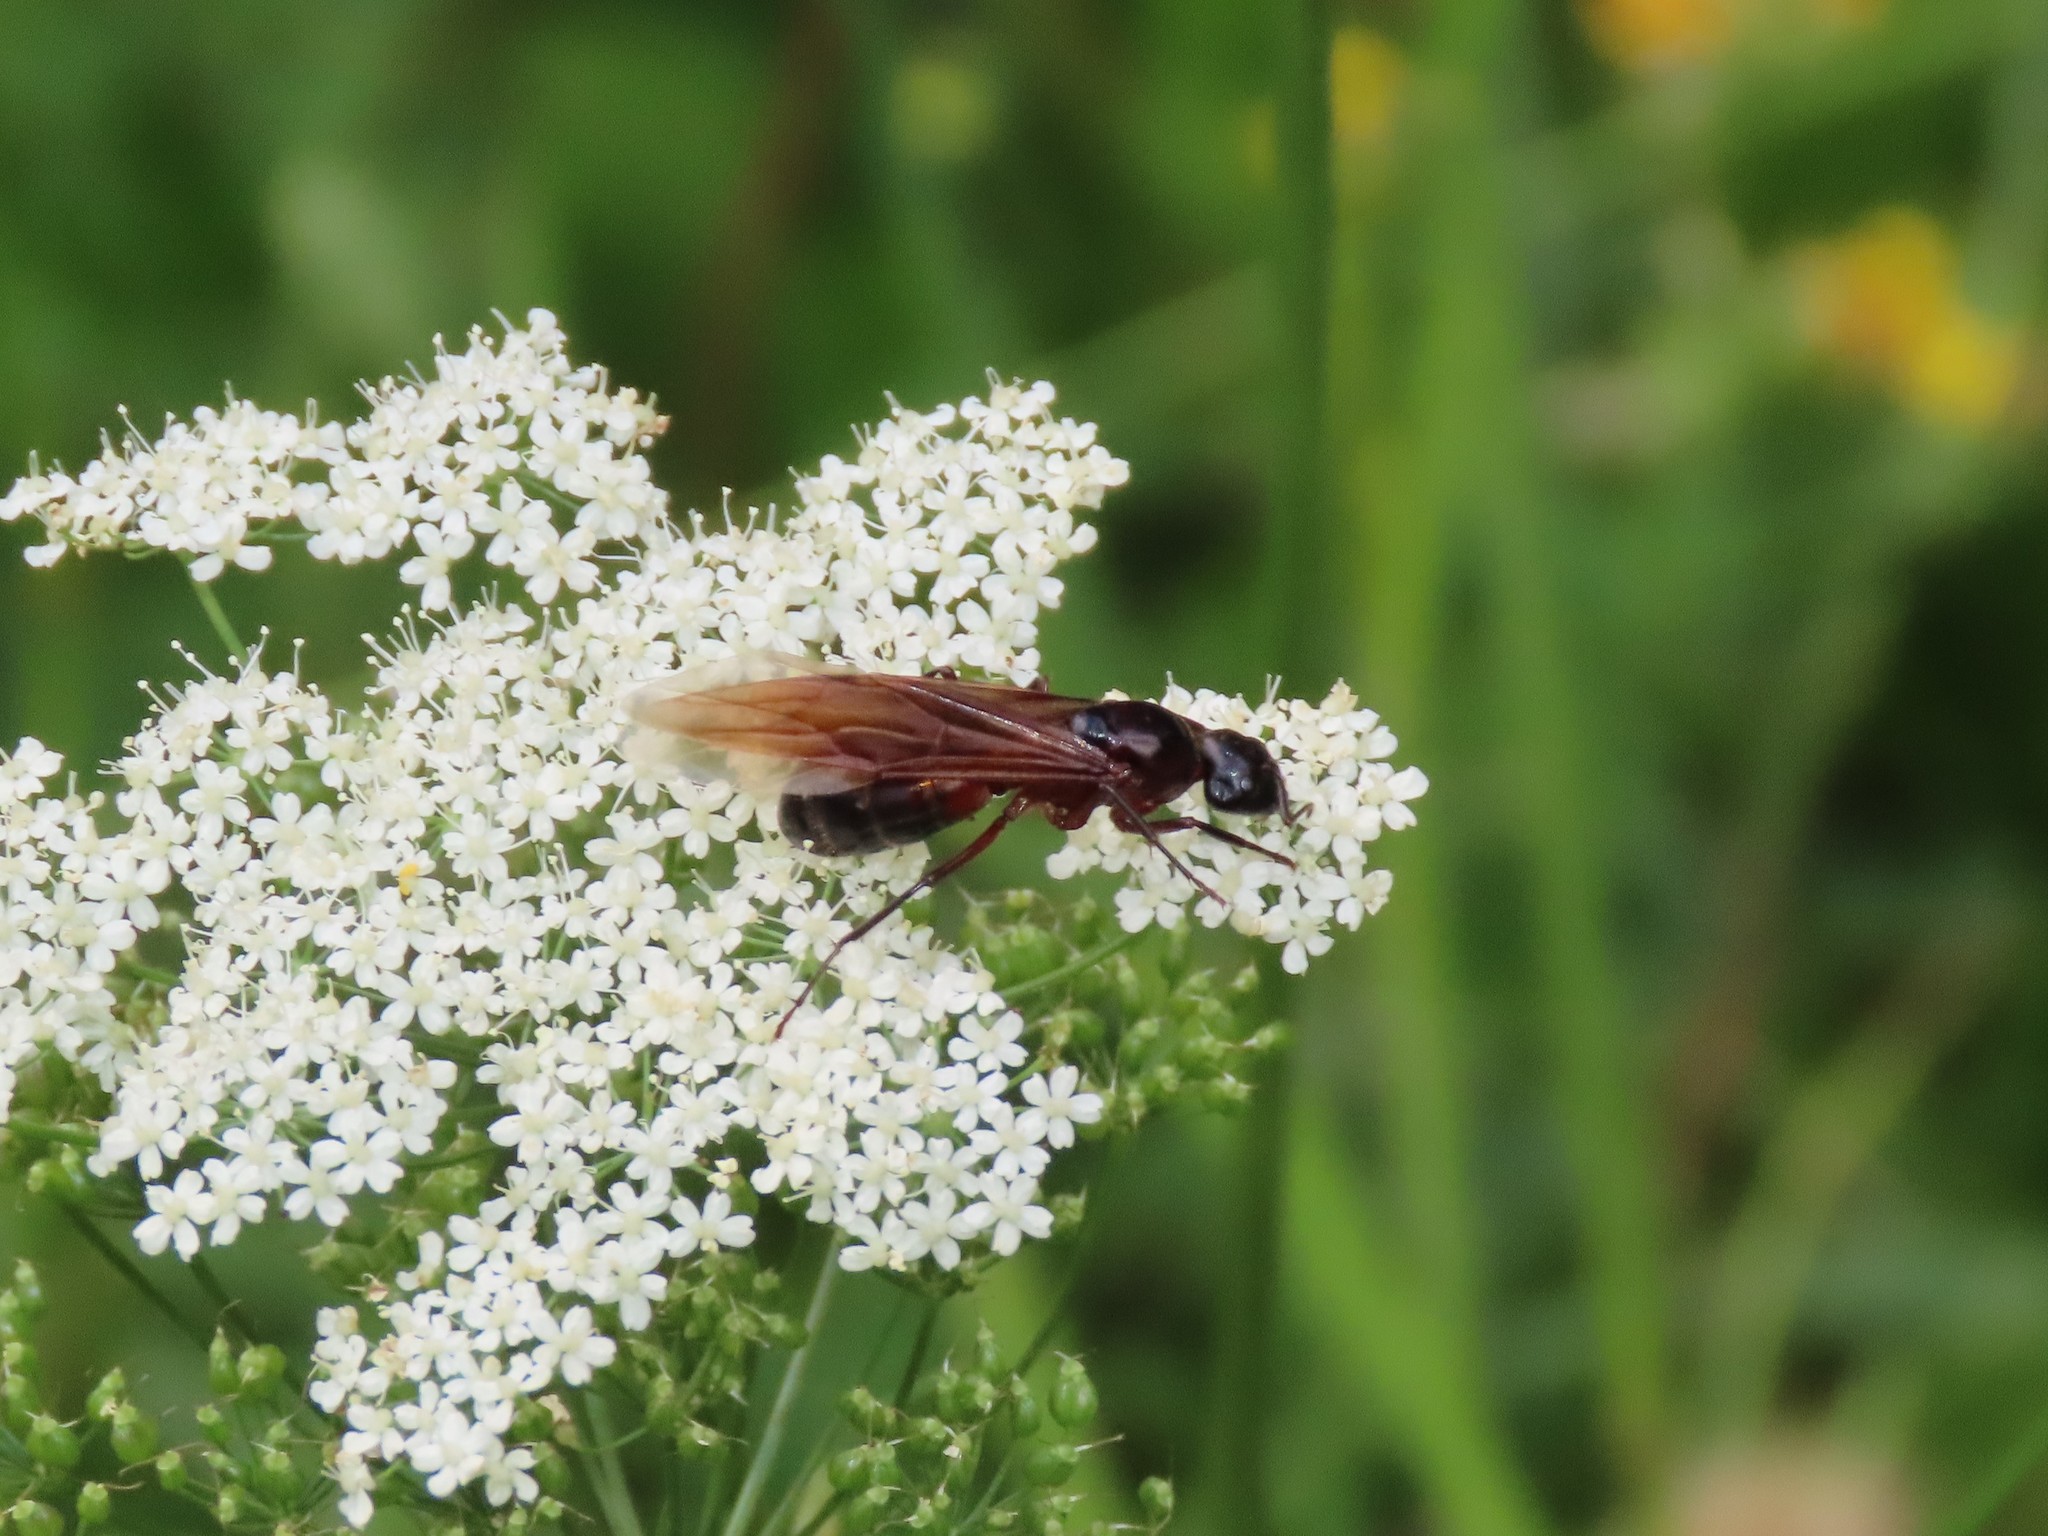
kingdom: Animalia
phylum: Arthropoda
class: Insecta
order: Hymenoptera
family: Formicidae
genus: Camponotus
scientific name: Camponotus ligniperdus
